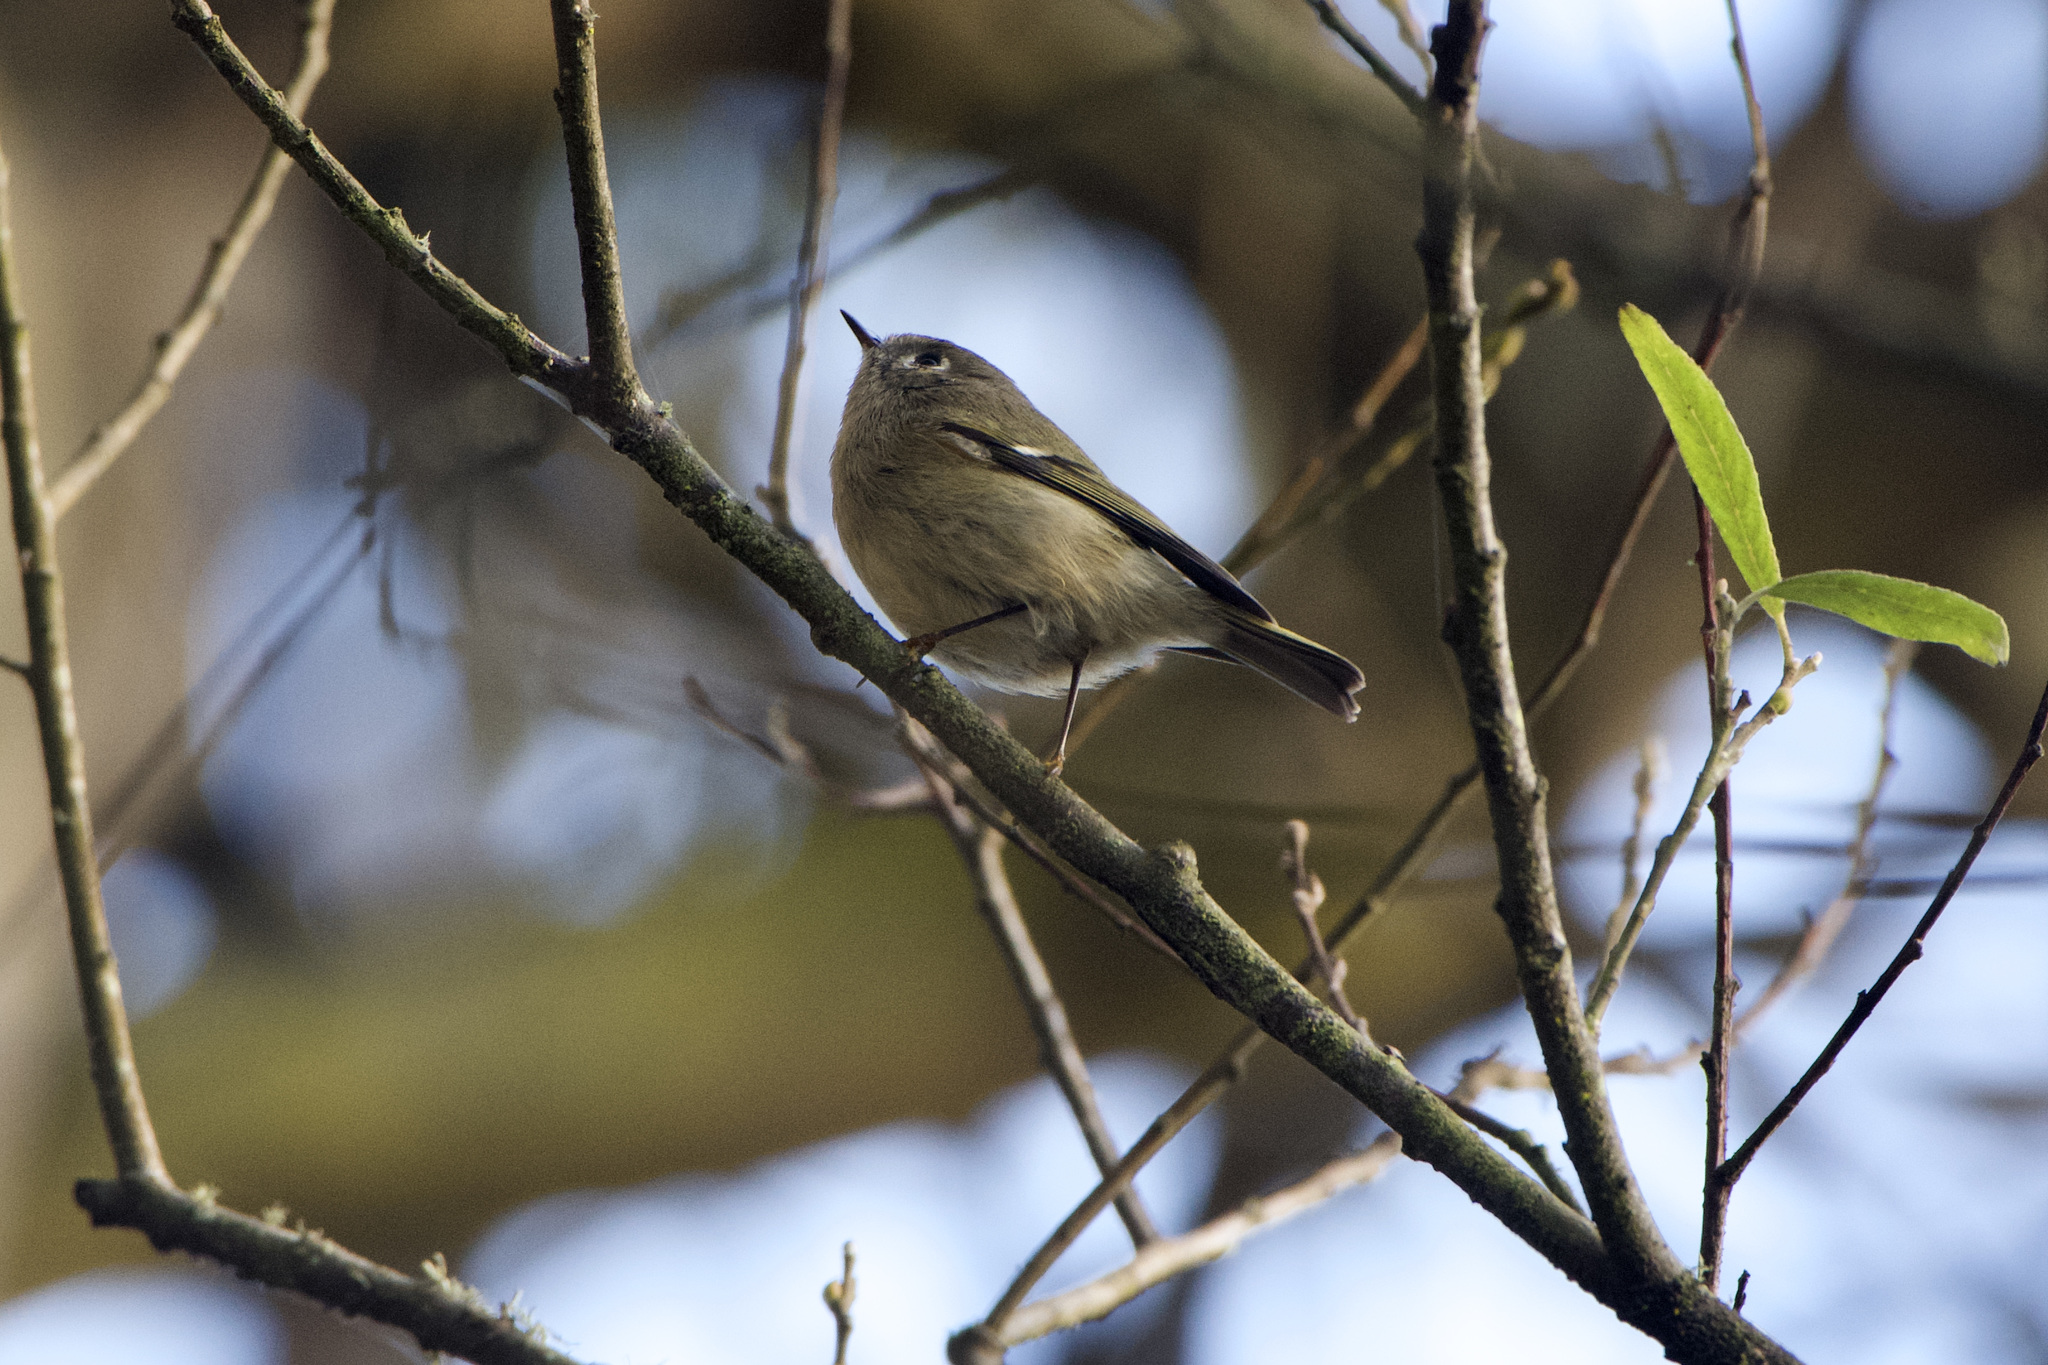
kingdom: Animalia
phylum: Chordata
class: Aves
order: Passeriformes
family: Regulidae
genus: Regulus
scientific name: Regulus calendula
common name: Ruby-crowned kinglet
